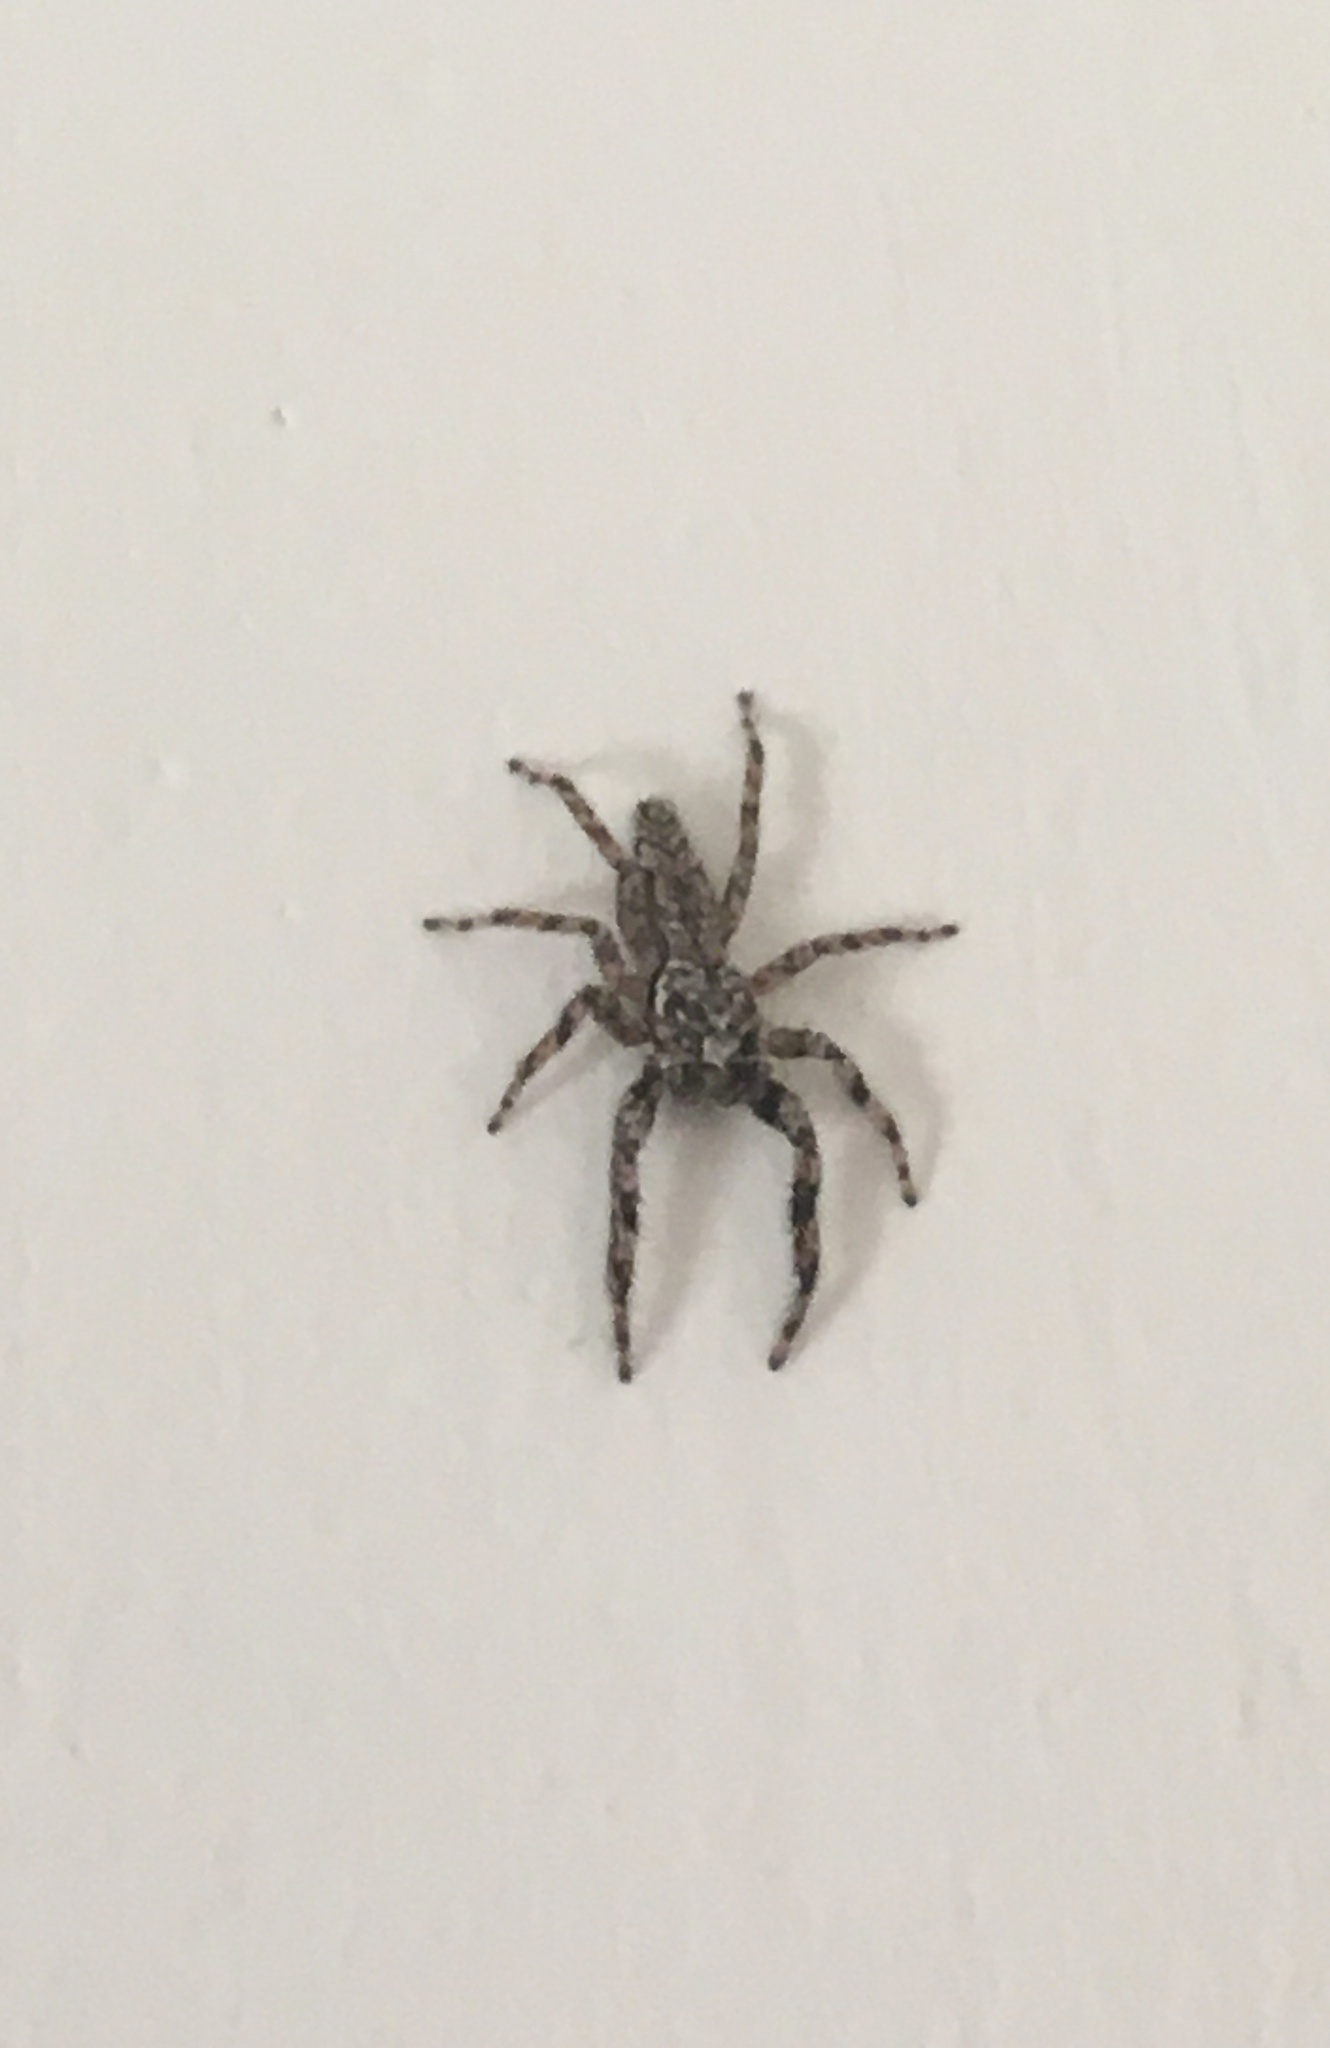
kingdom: Animalia
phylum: Arthropoda
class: Arachnida
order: Araneae
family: Salticidae
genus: Platycryptus
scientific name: Platycryptus undatus
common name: Tan jumping spider
